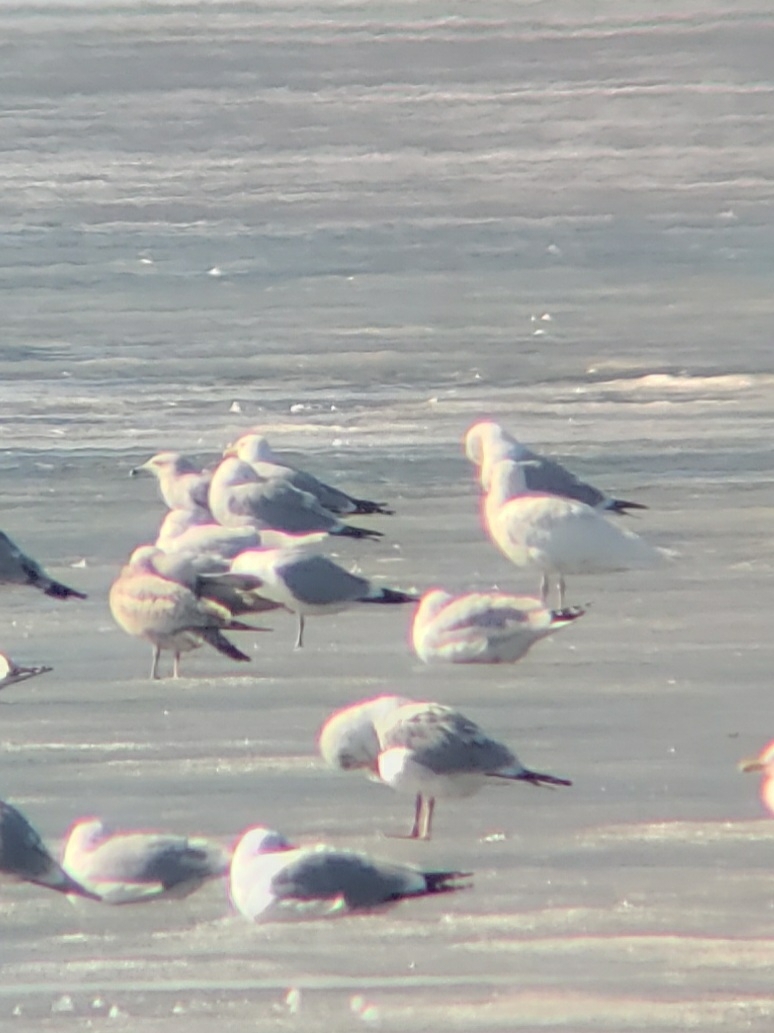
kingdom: Animalia
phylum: Chordata
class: Aves
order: Charadriiformes
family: Laridae
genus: Larus
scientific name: Larus hyperboreus
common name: Glaucous gull
